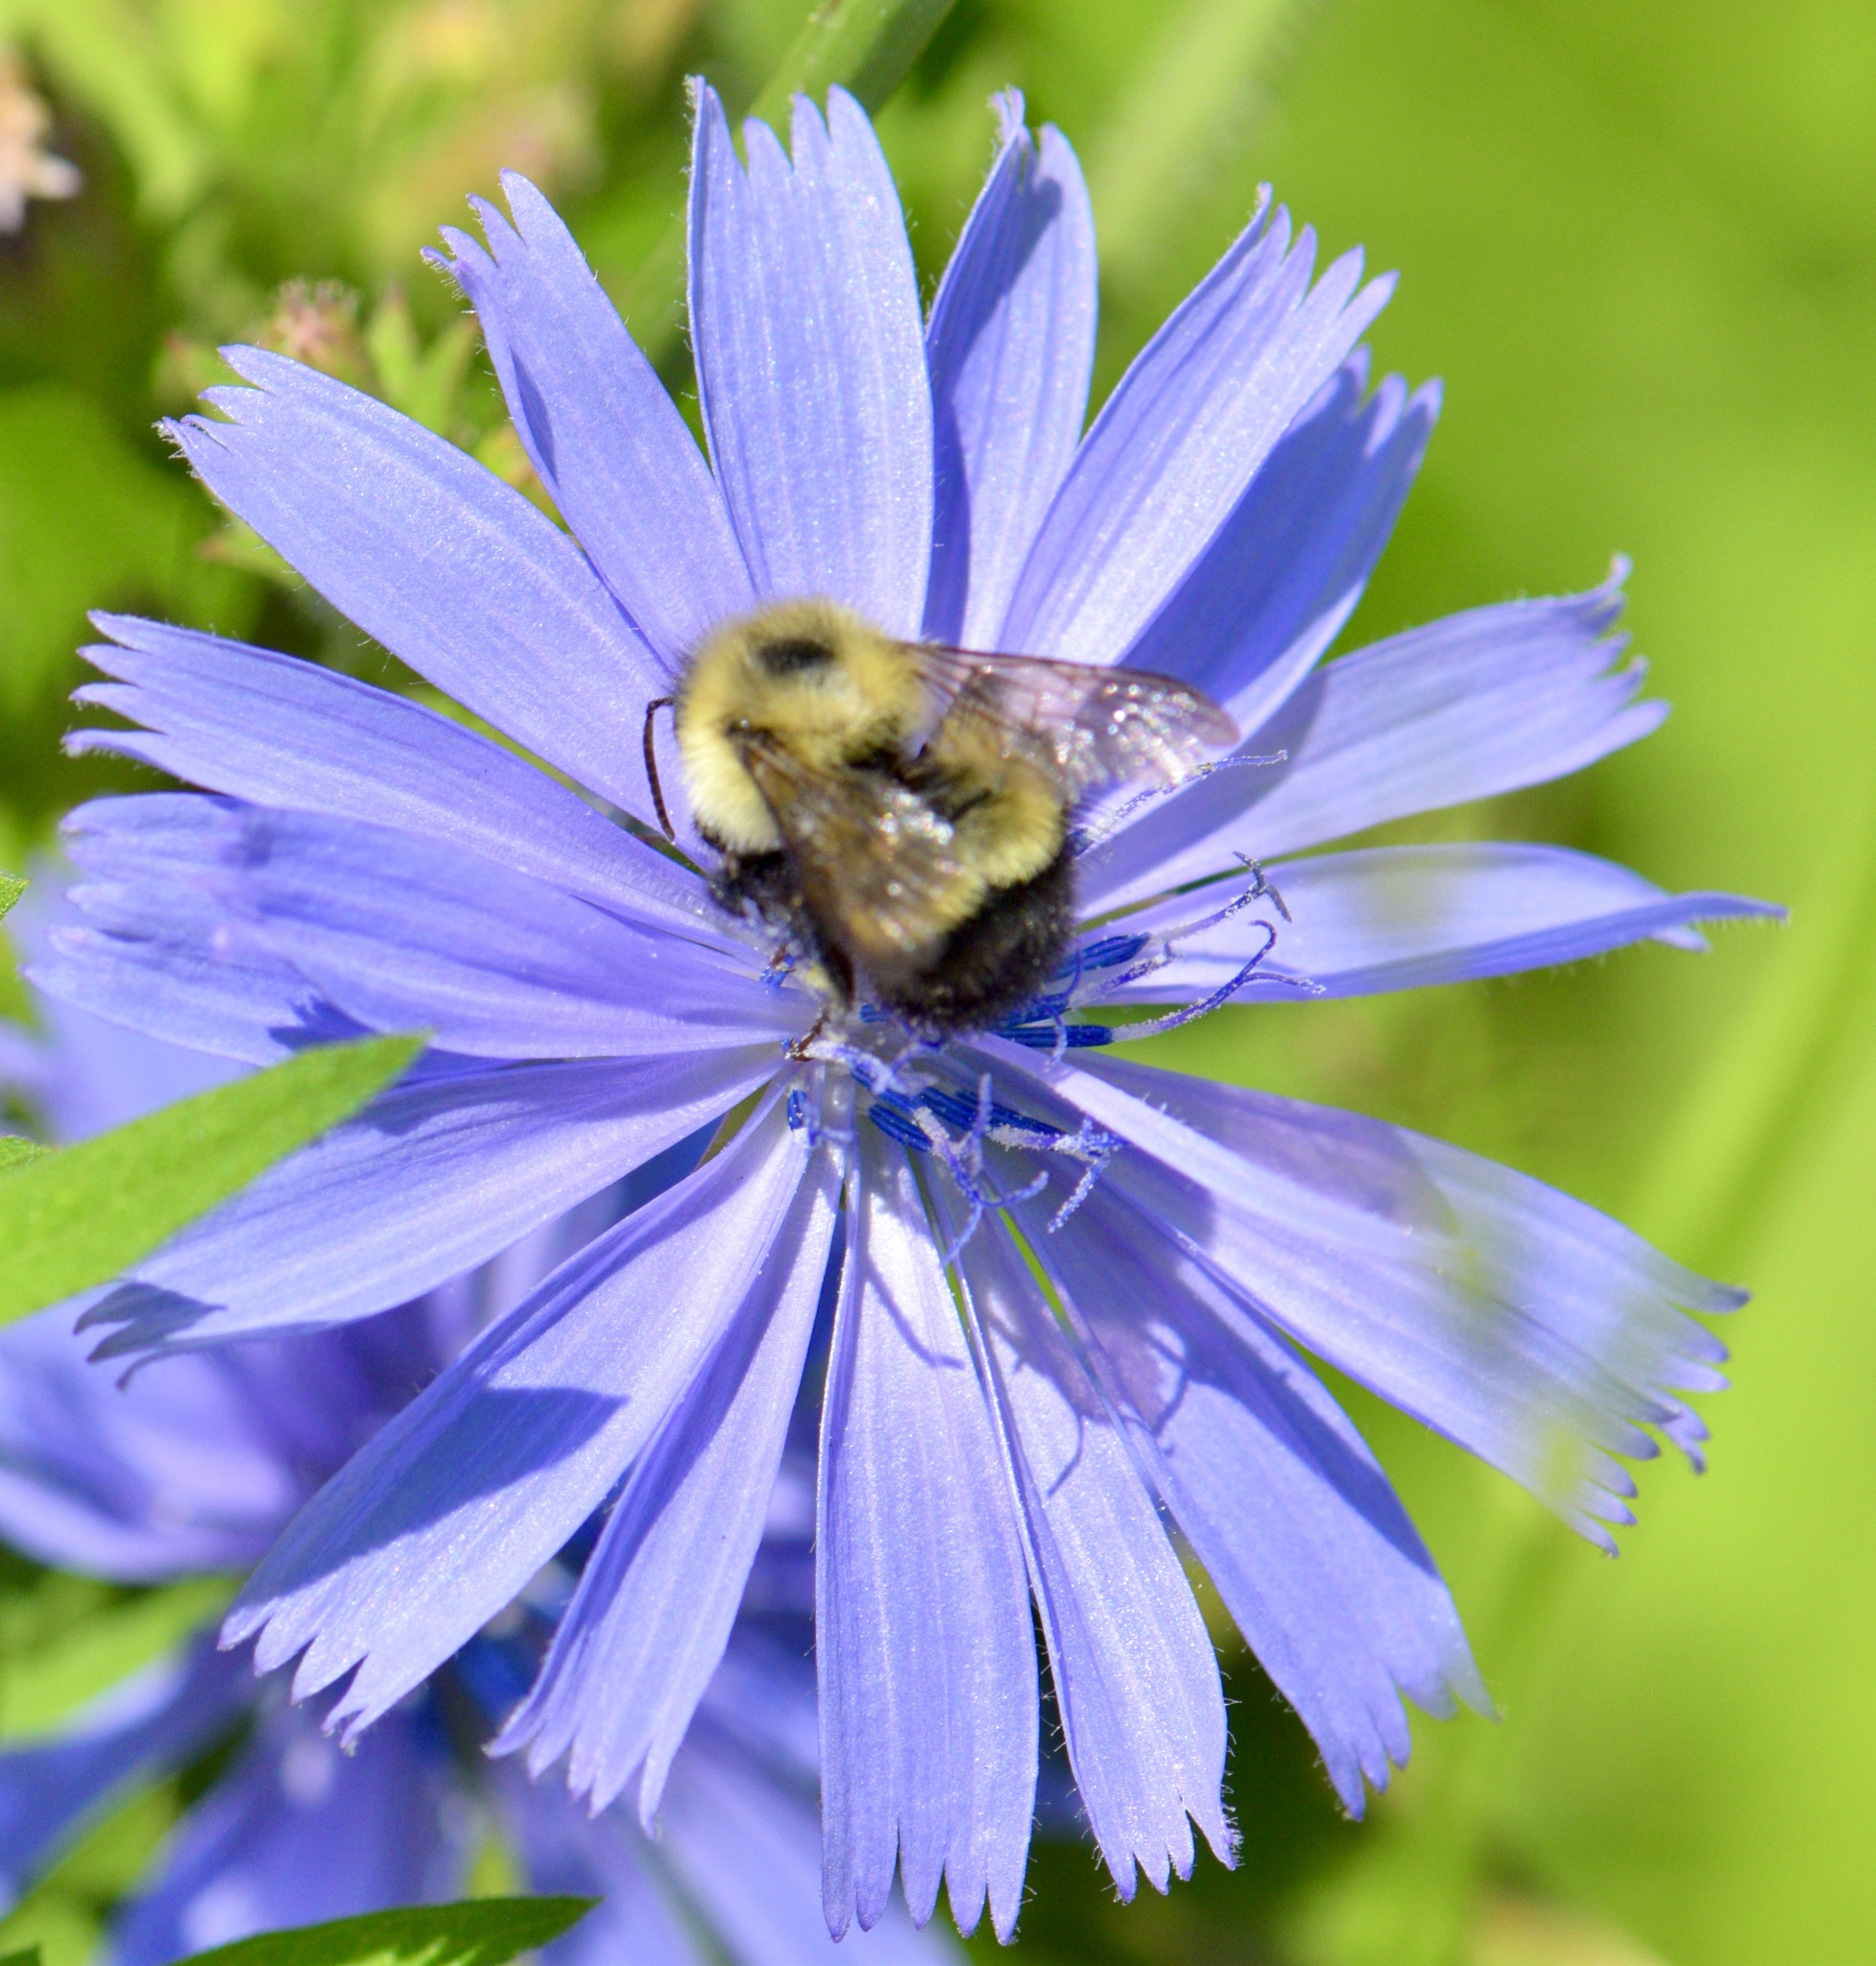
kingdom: Animalia
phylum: Arthropoda
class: Insecta
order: Hymenoptera
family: Apidae
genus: Pyrobombus
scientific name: Pyrobombus
